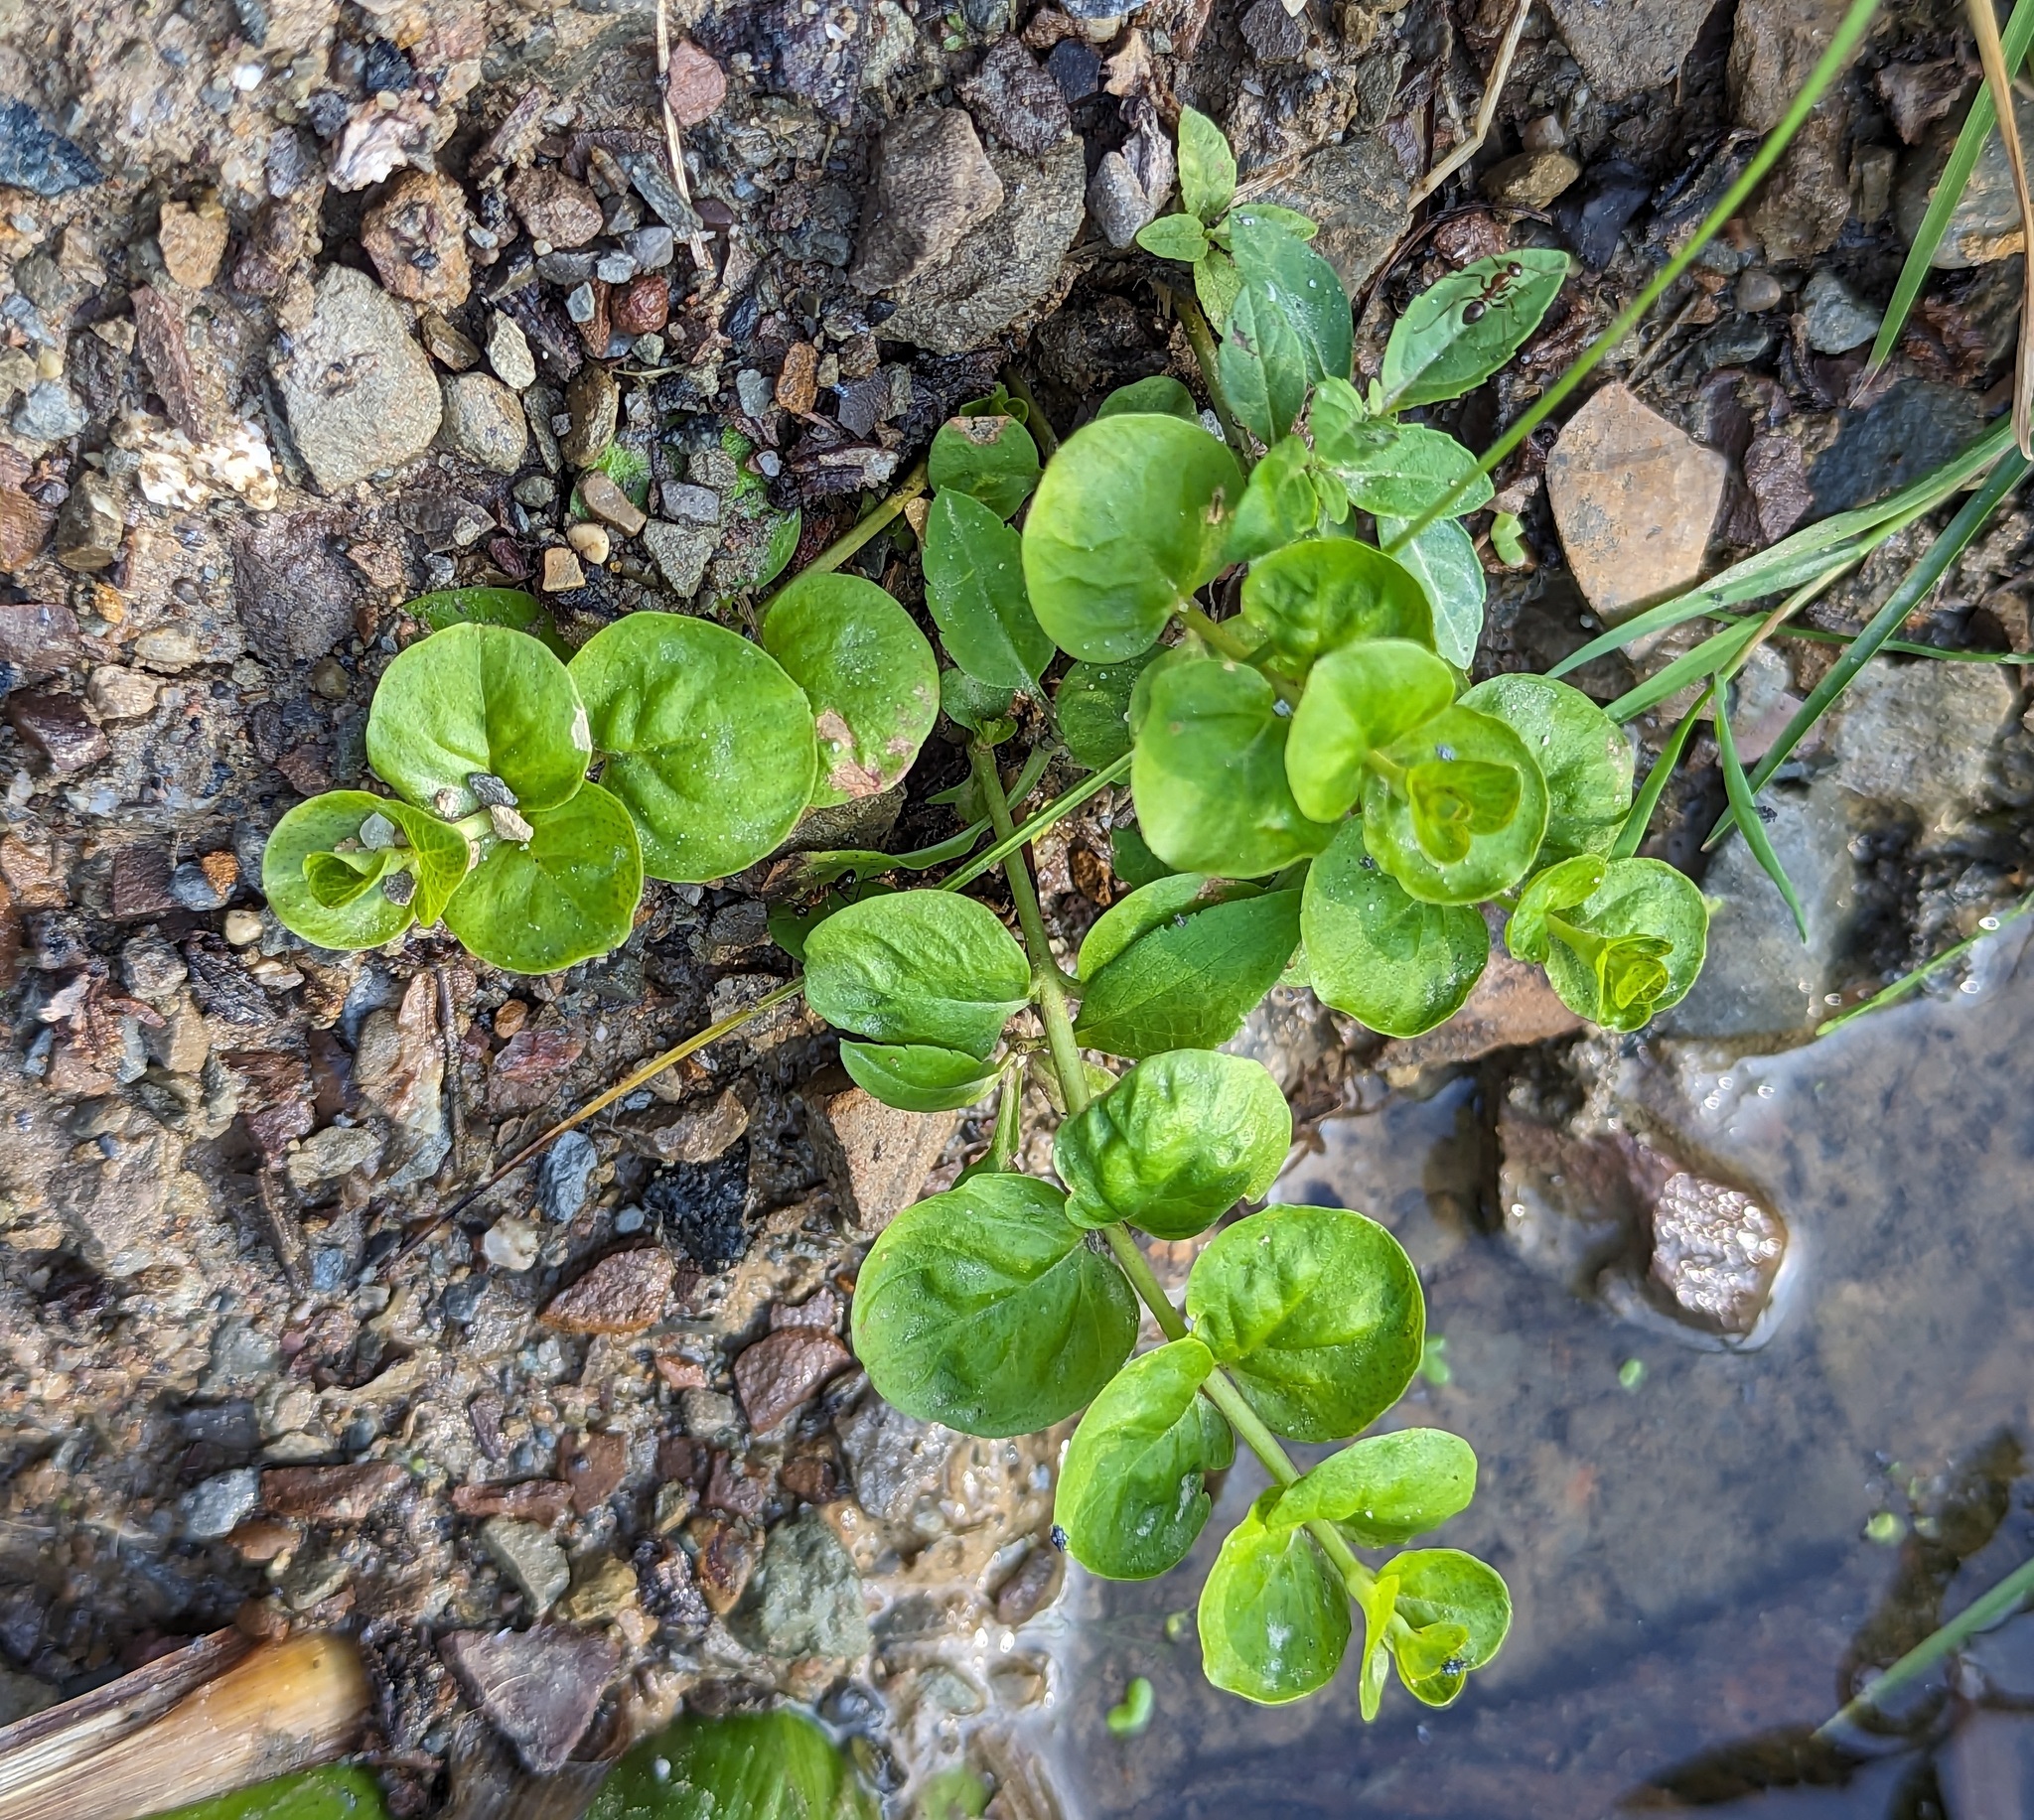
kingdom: Plantae
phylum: Tracheophyta
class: Magnoliopsida
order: Ericales
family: Primulaceae
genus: Lysimachia
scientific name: Lysimachia nummularia
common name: Moneywort
